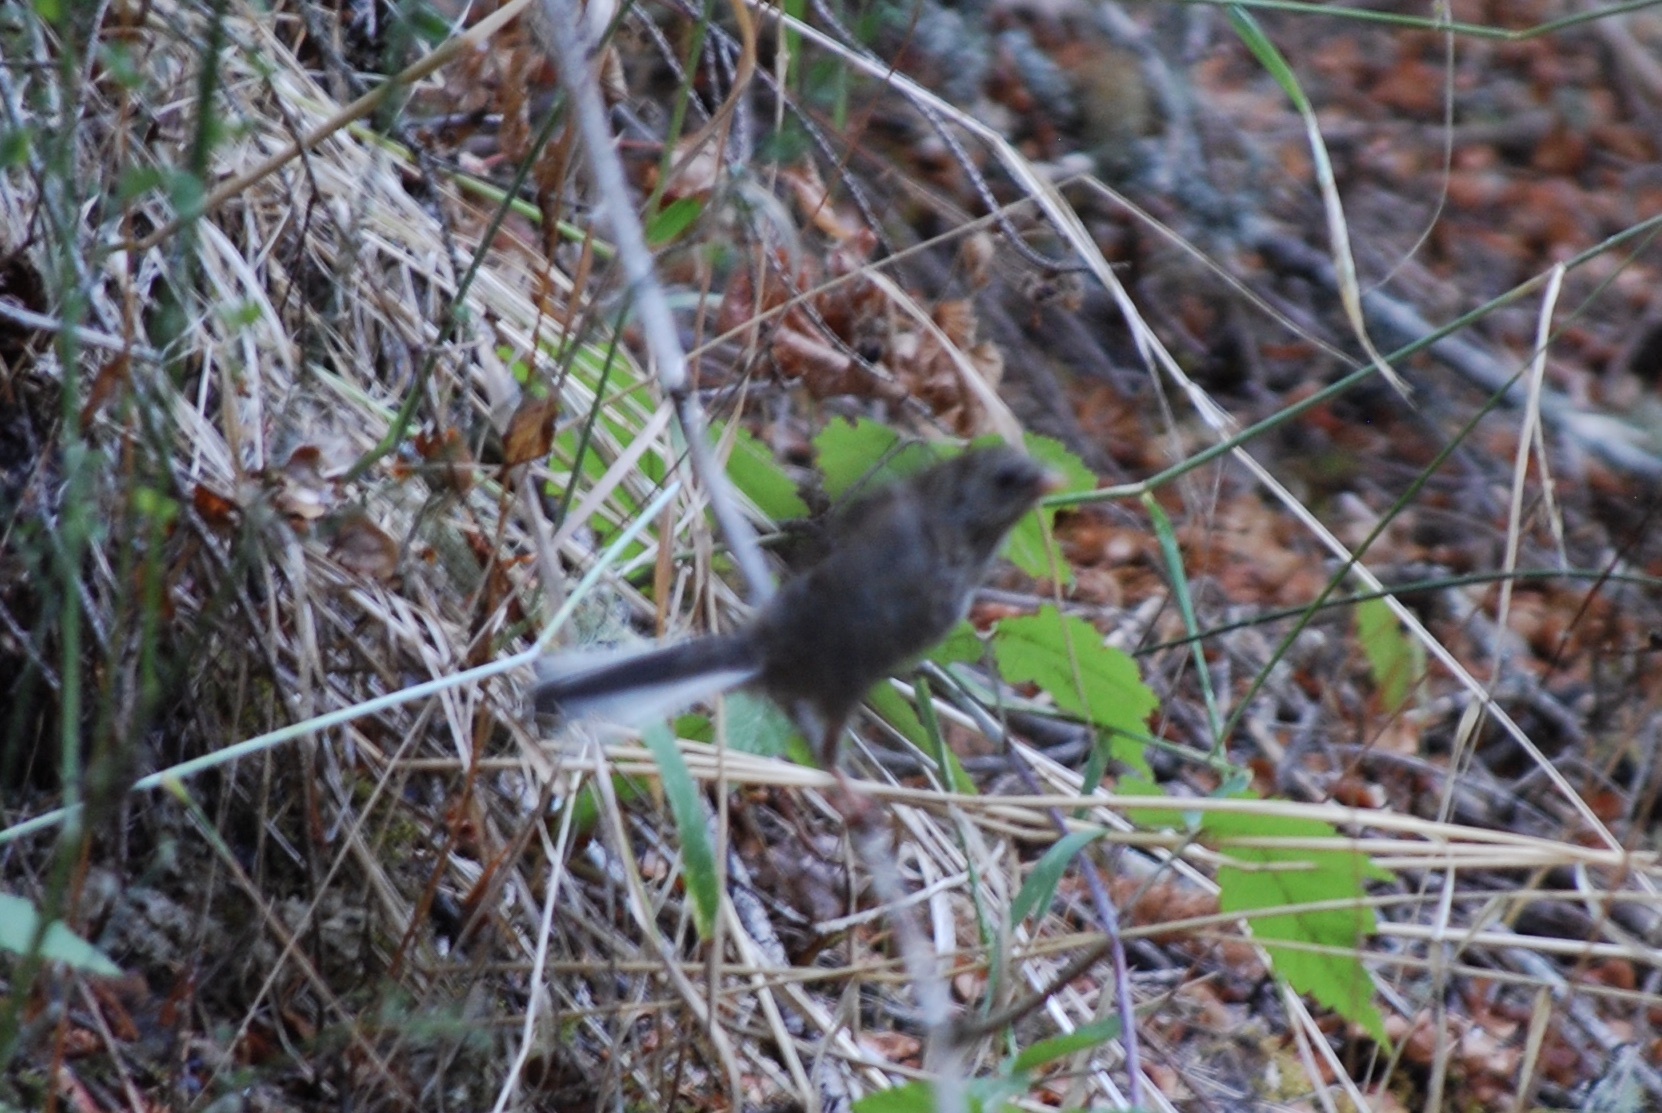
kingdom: Animalia
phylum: Chordata
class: Aves
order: Passeriformes
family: Passerellidae
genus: Junco
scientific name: Junco hyemalis
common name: Dark-eyed junco
